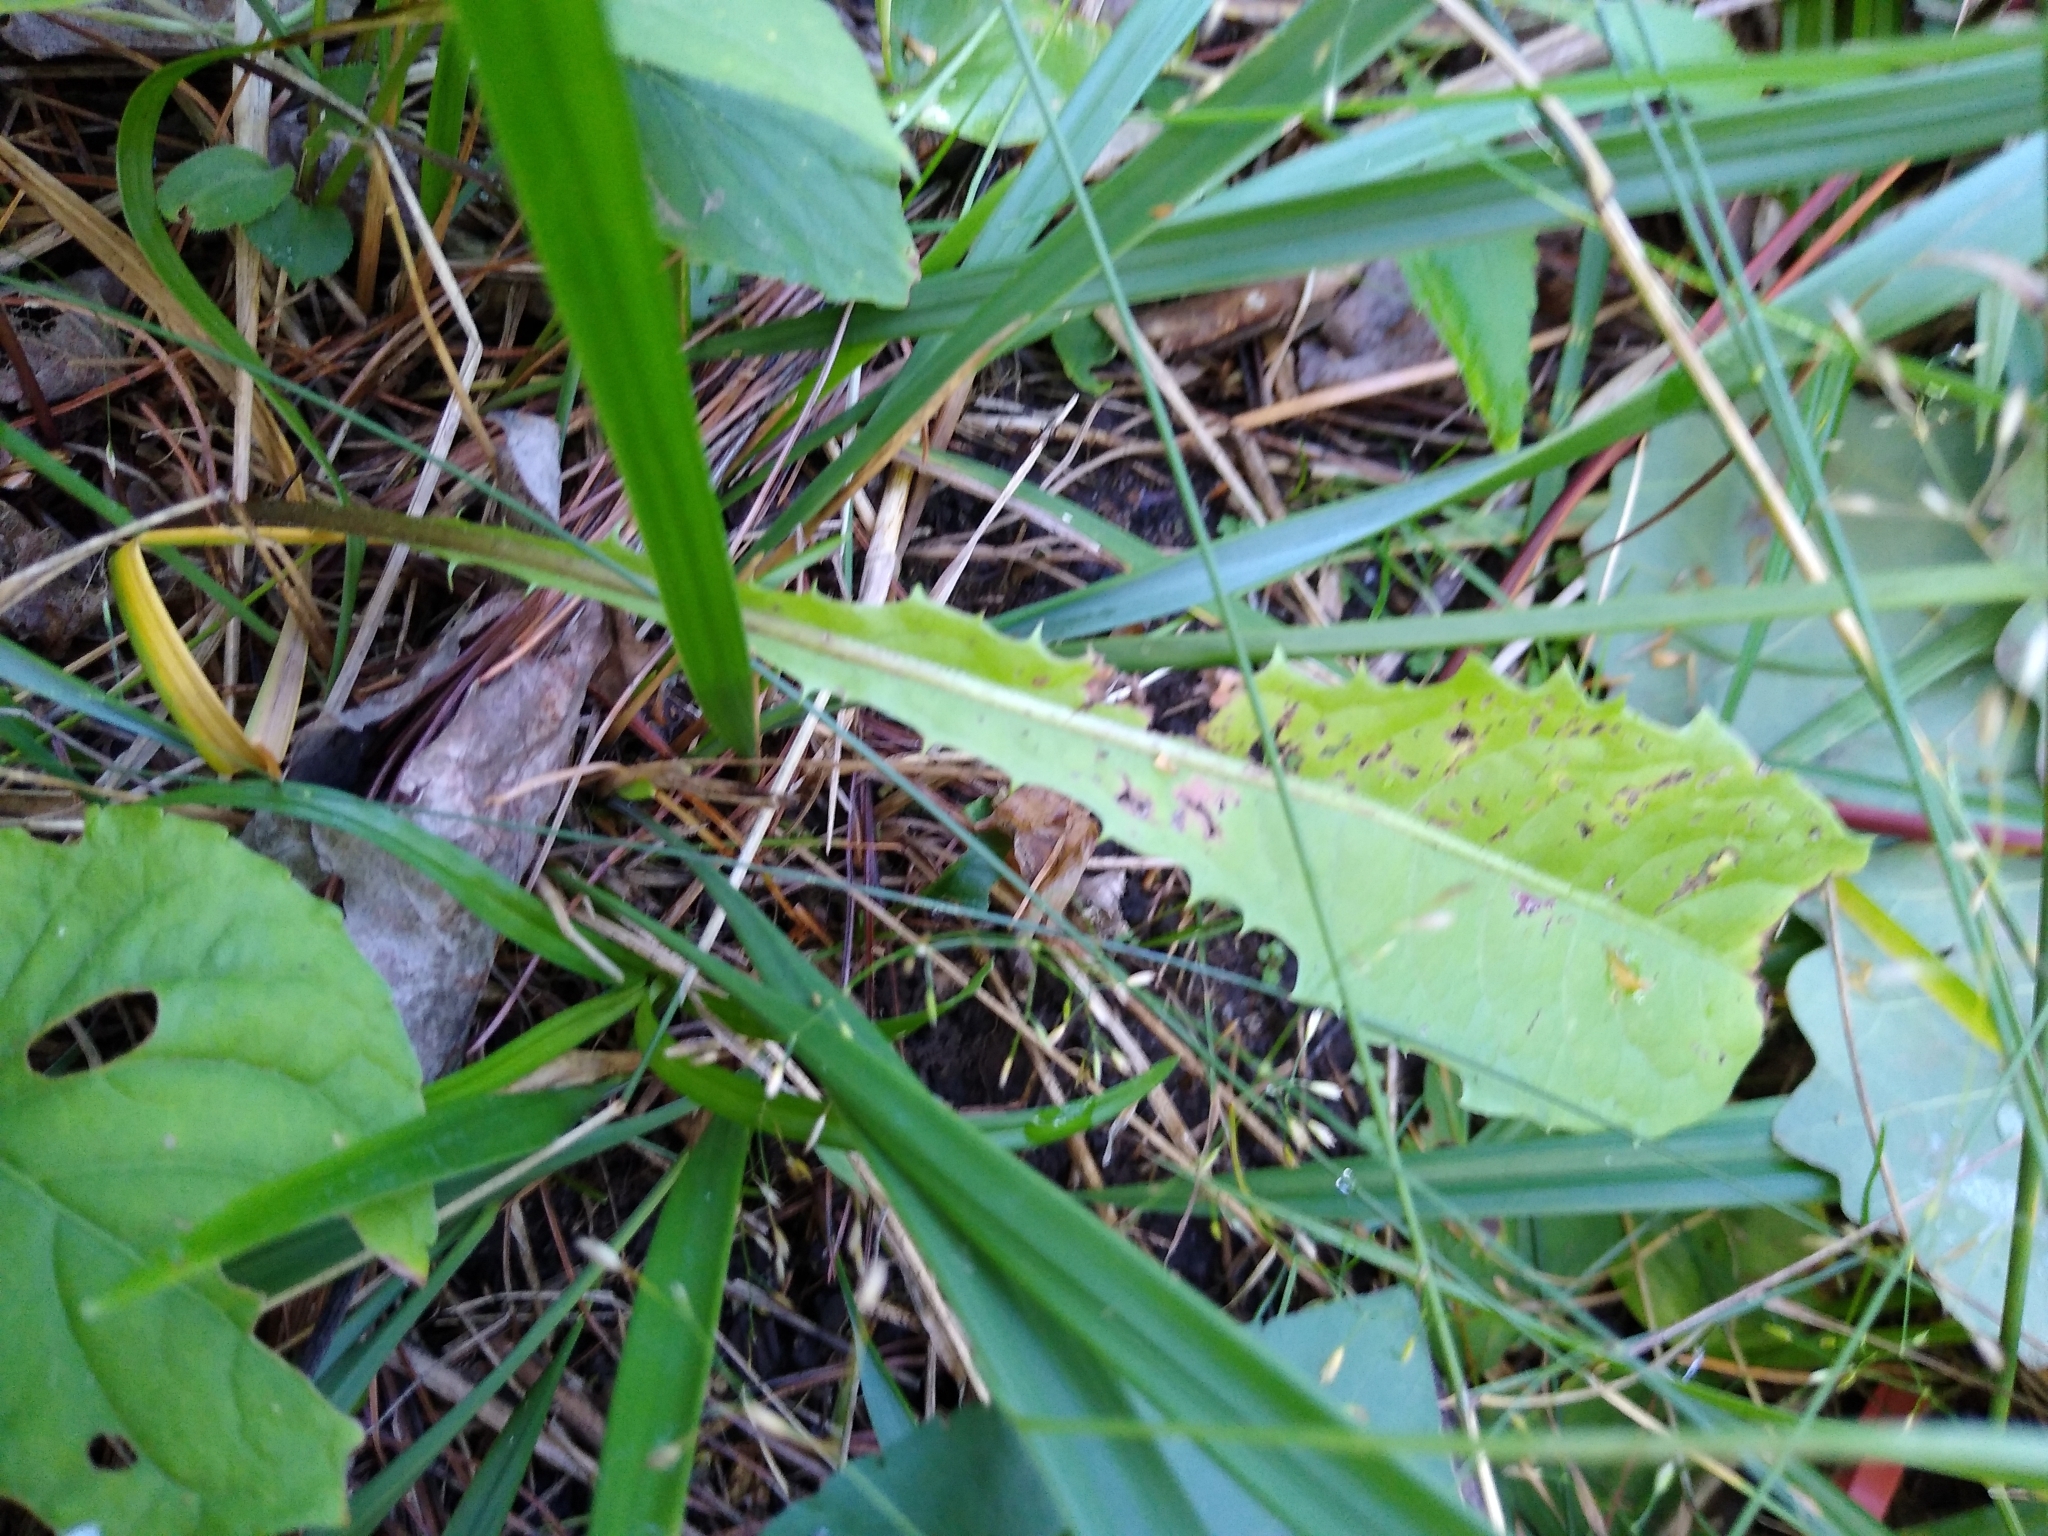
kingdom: Plantae
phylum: Tracheophyta
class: Magnoliopsida
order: Asterales
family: Asteraceae
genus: Taraxacum
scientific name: Taraxacum officinale
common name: Common dandelion
